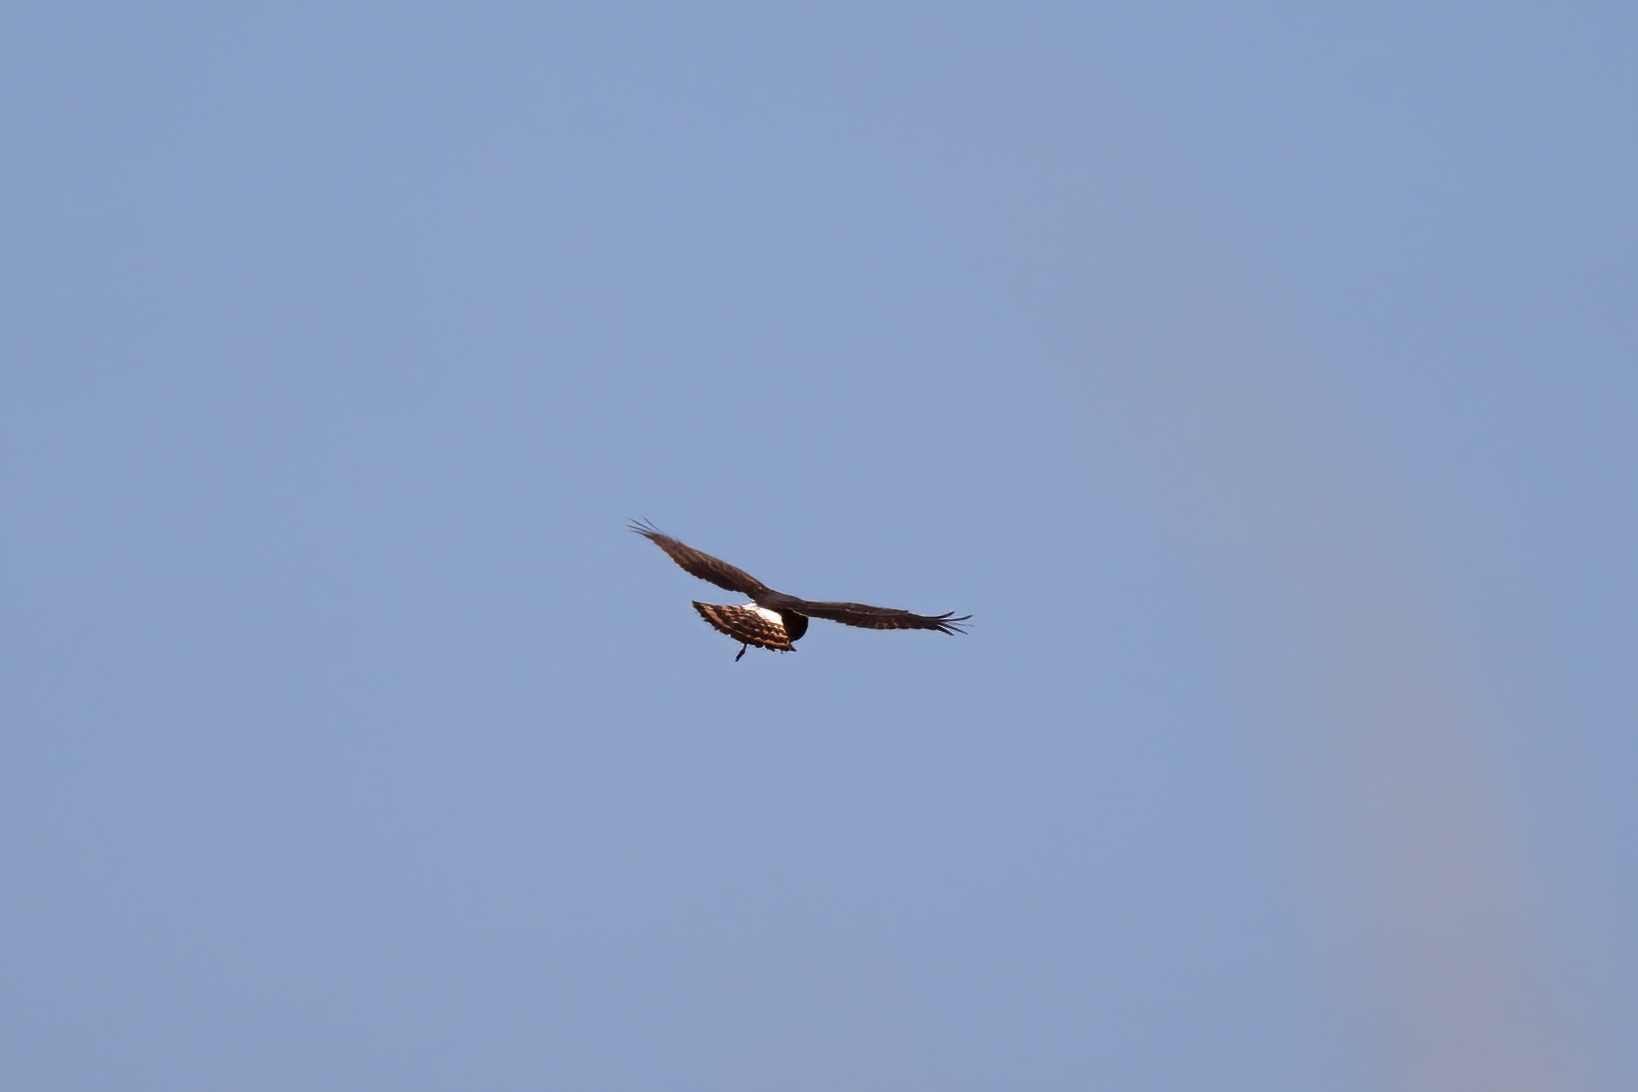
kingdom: Animalia
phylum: Chordata
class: Aves
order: Accipitriformes
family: Accipitridae
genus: Circus
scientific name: Circus cyaneus
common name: Hen harrier
